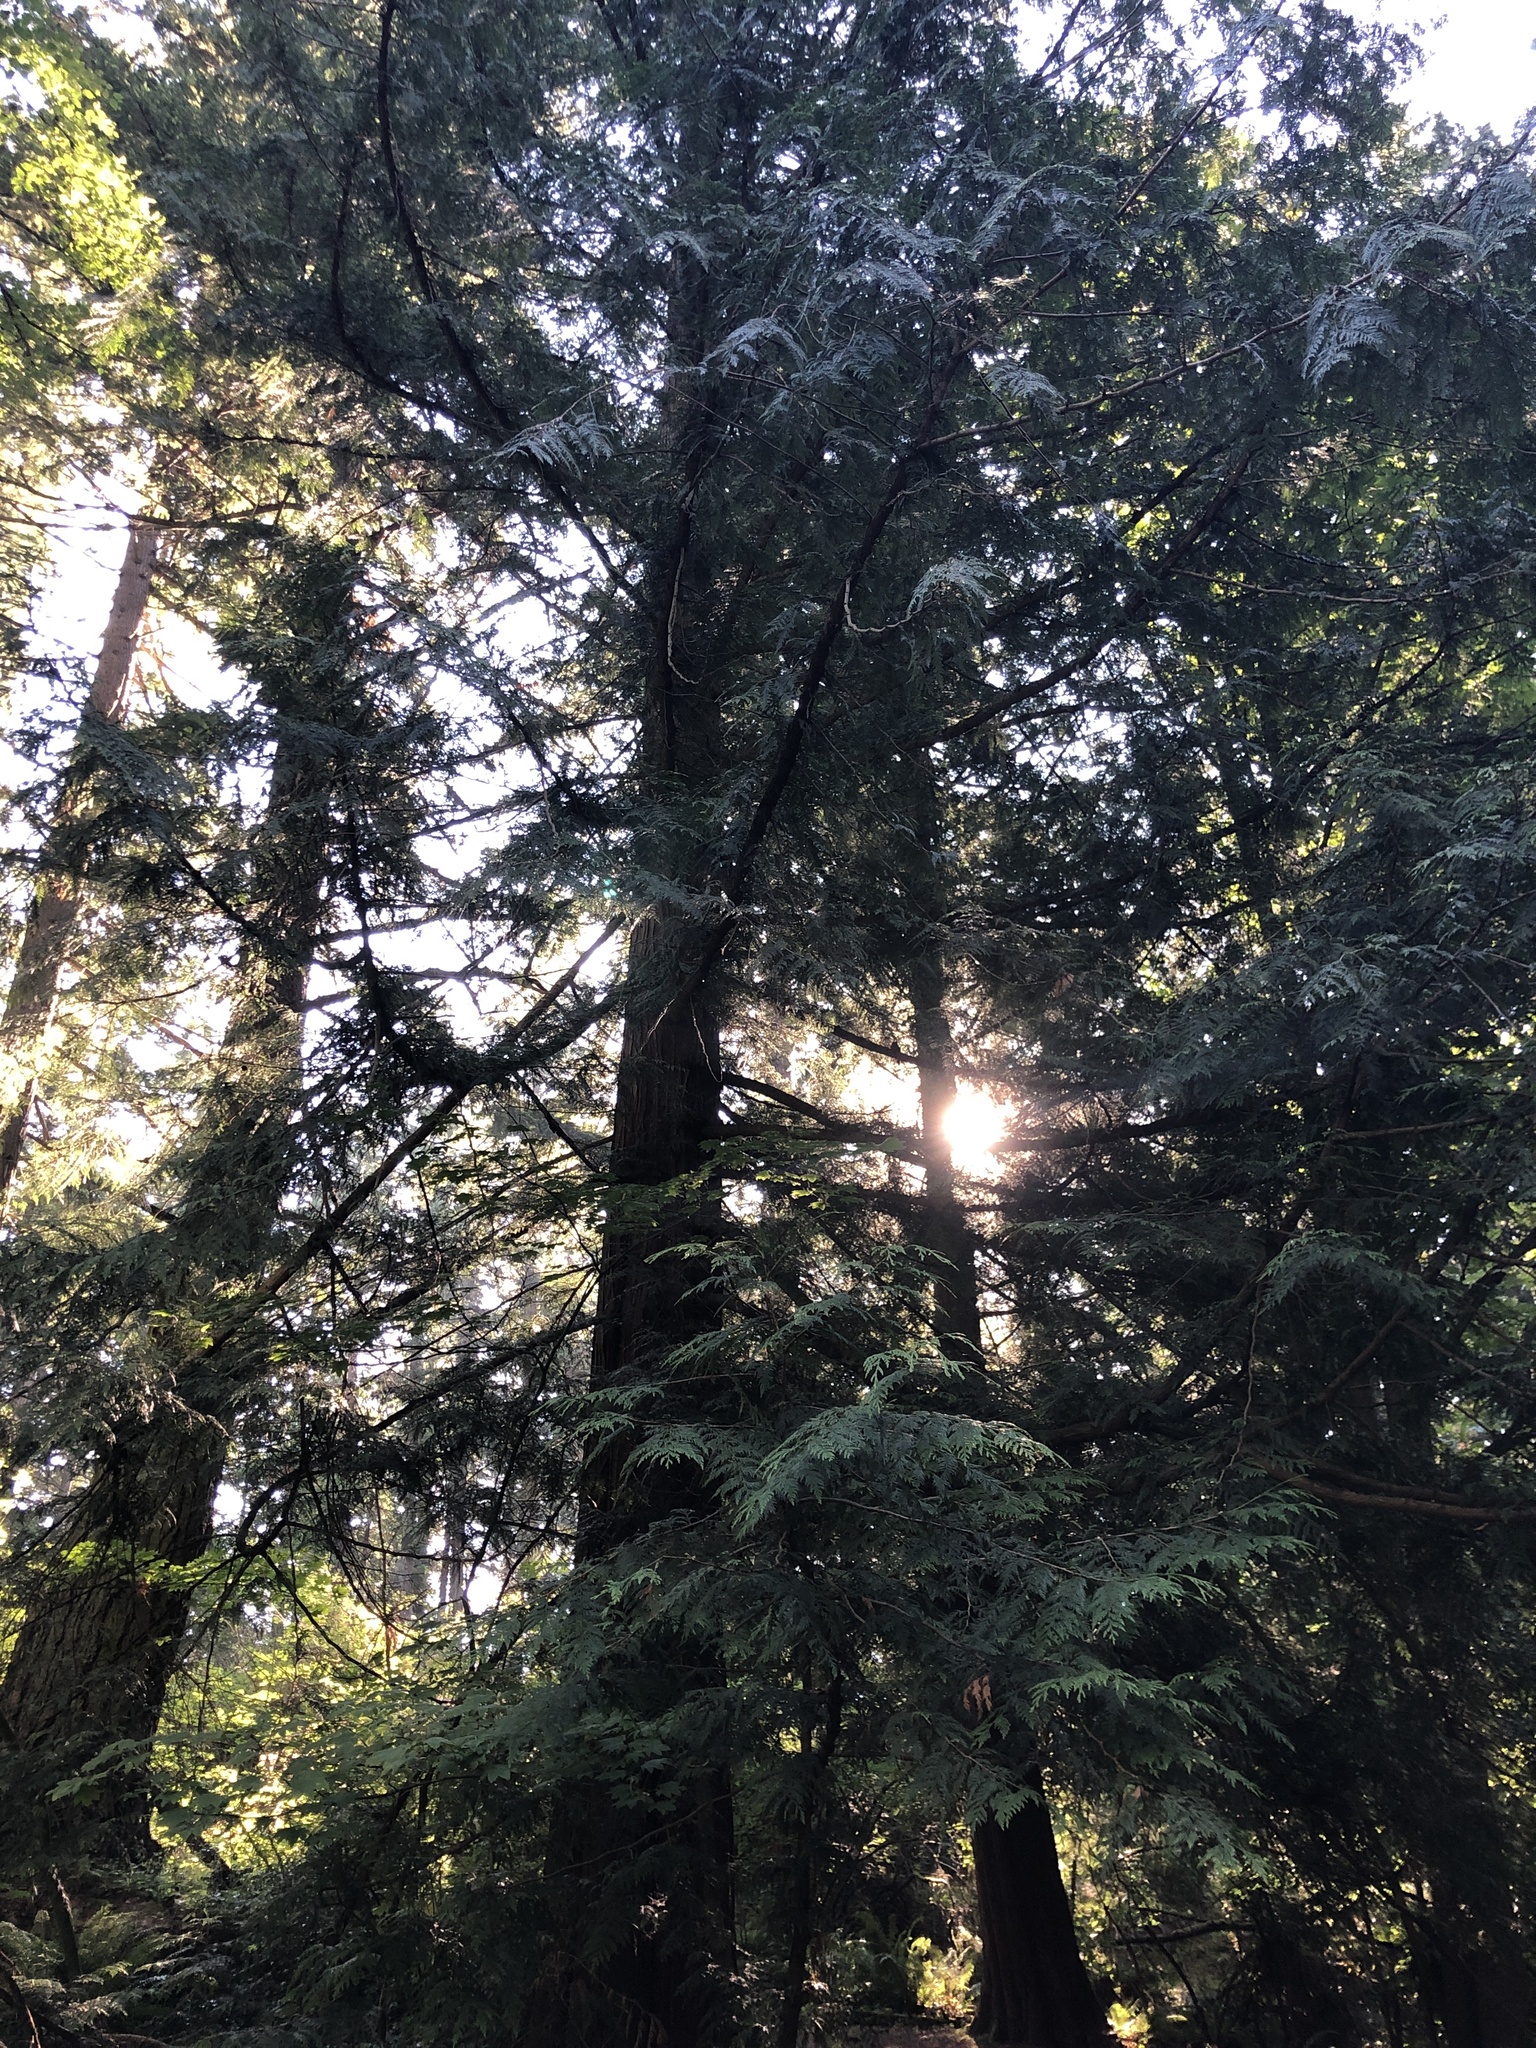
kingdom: Plantae
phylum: Tracheophyta
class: Pinopsida
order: Pinales
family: Cupressaceae
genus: Thuja
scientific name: Thuja plicata
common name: Western red-cedar
